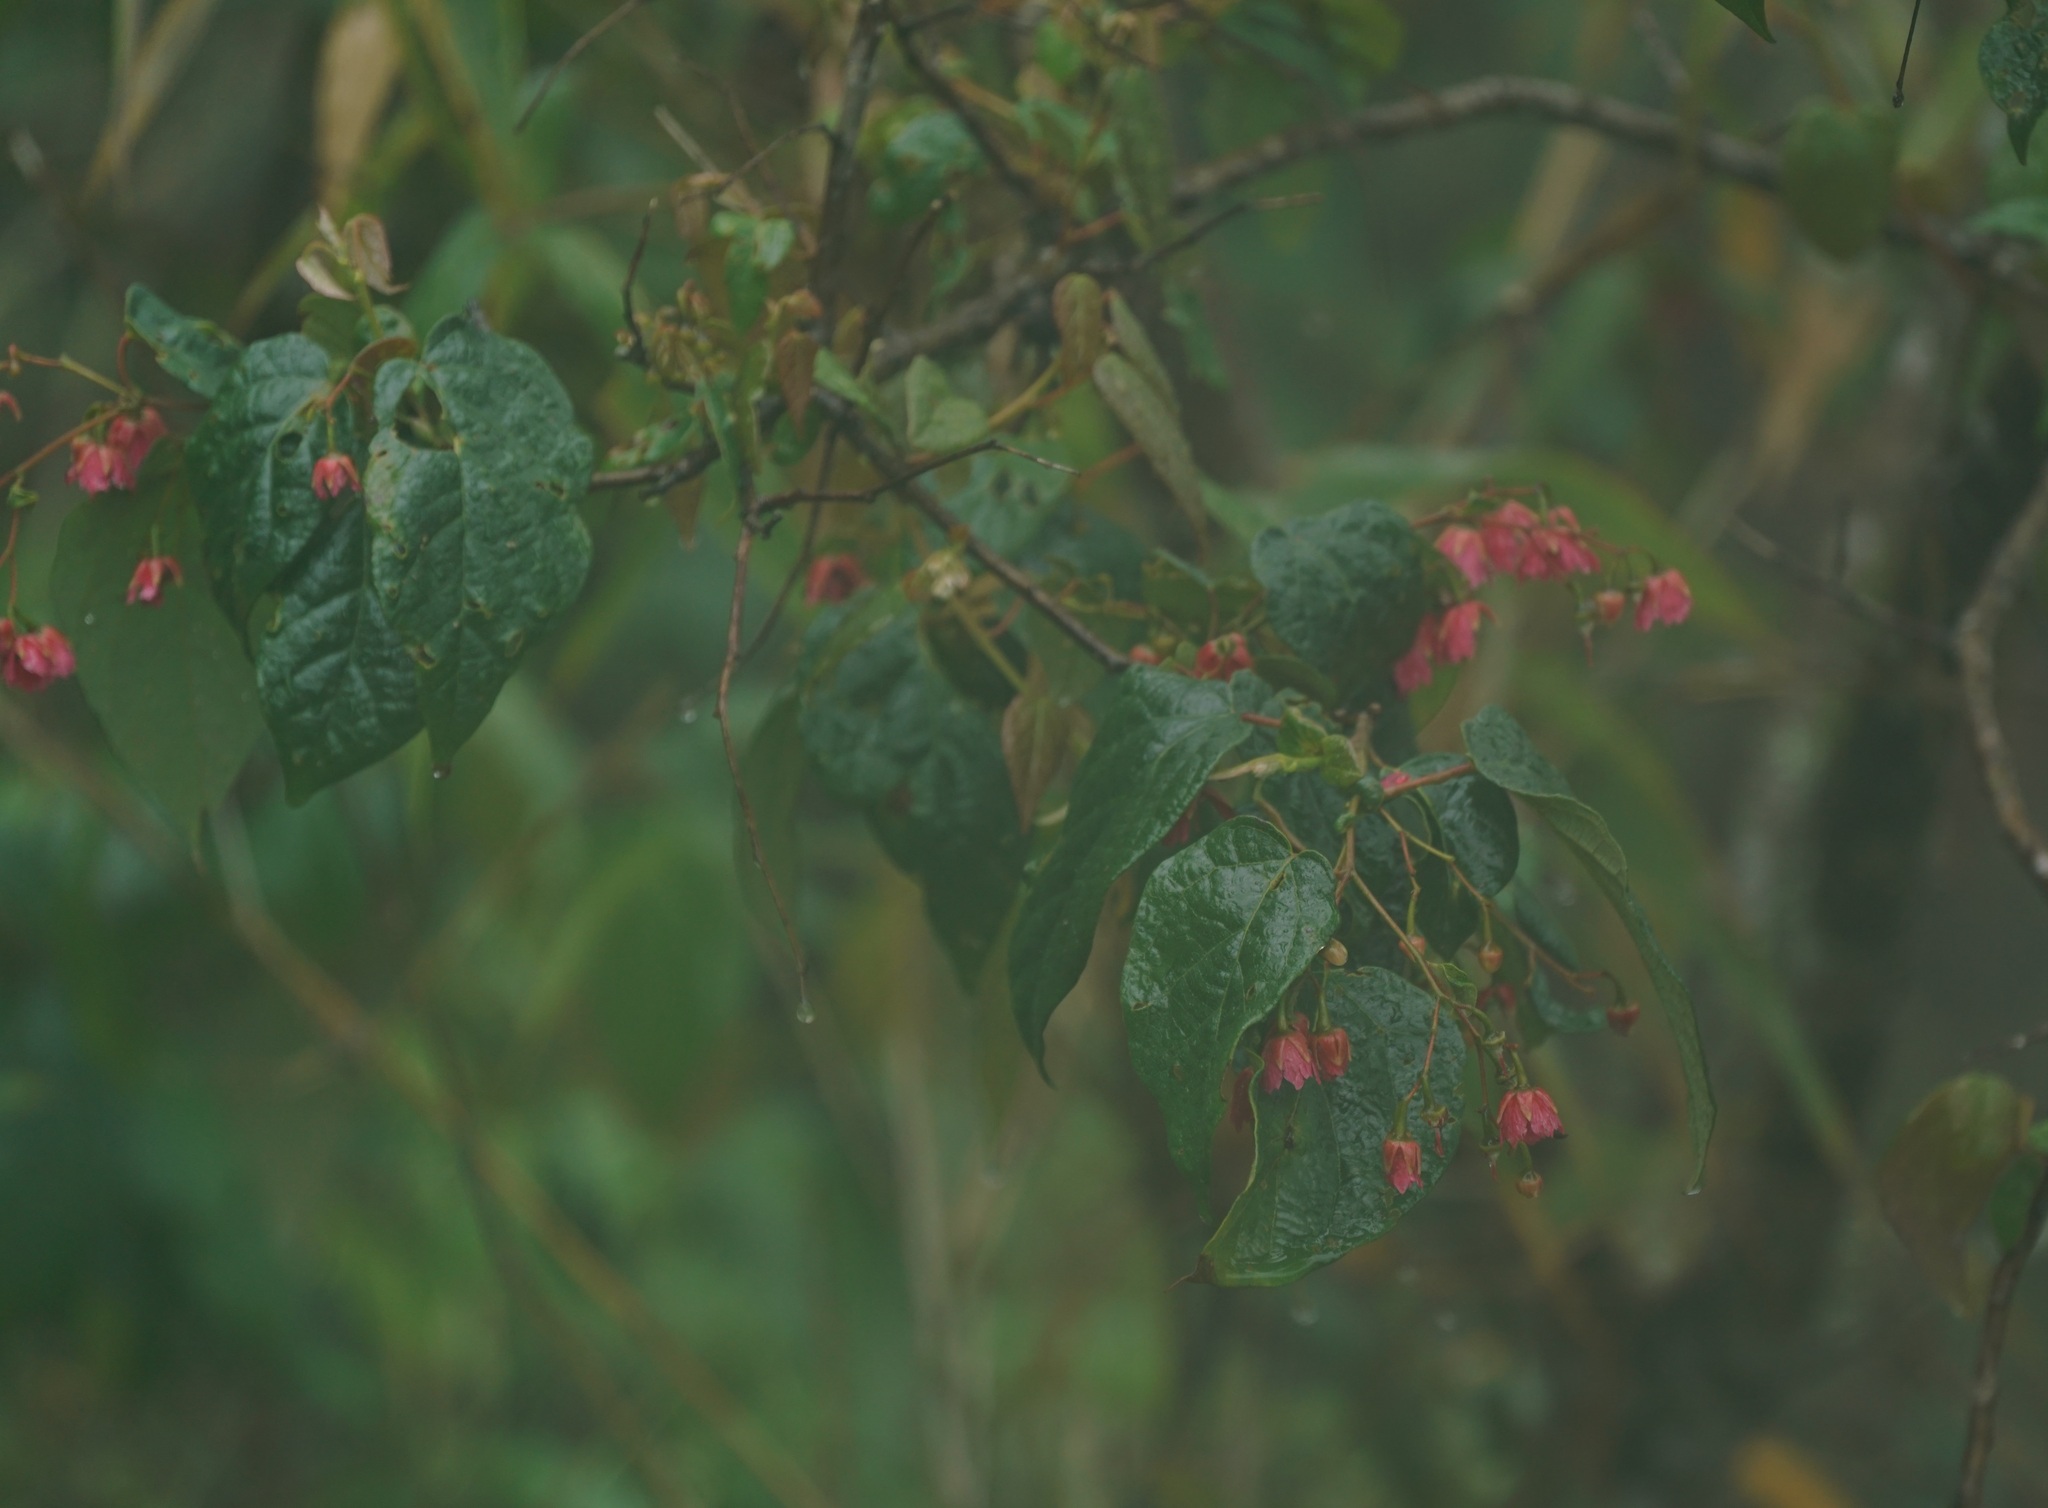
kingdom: Plantae
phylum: Tracheophyta
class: Magnoliopsida
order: Oxalidales
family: Elaeocarpaceae
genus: Vallea
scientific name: Vallea stipularis
